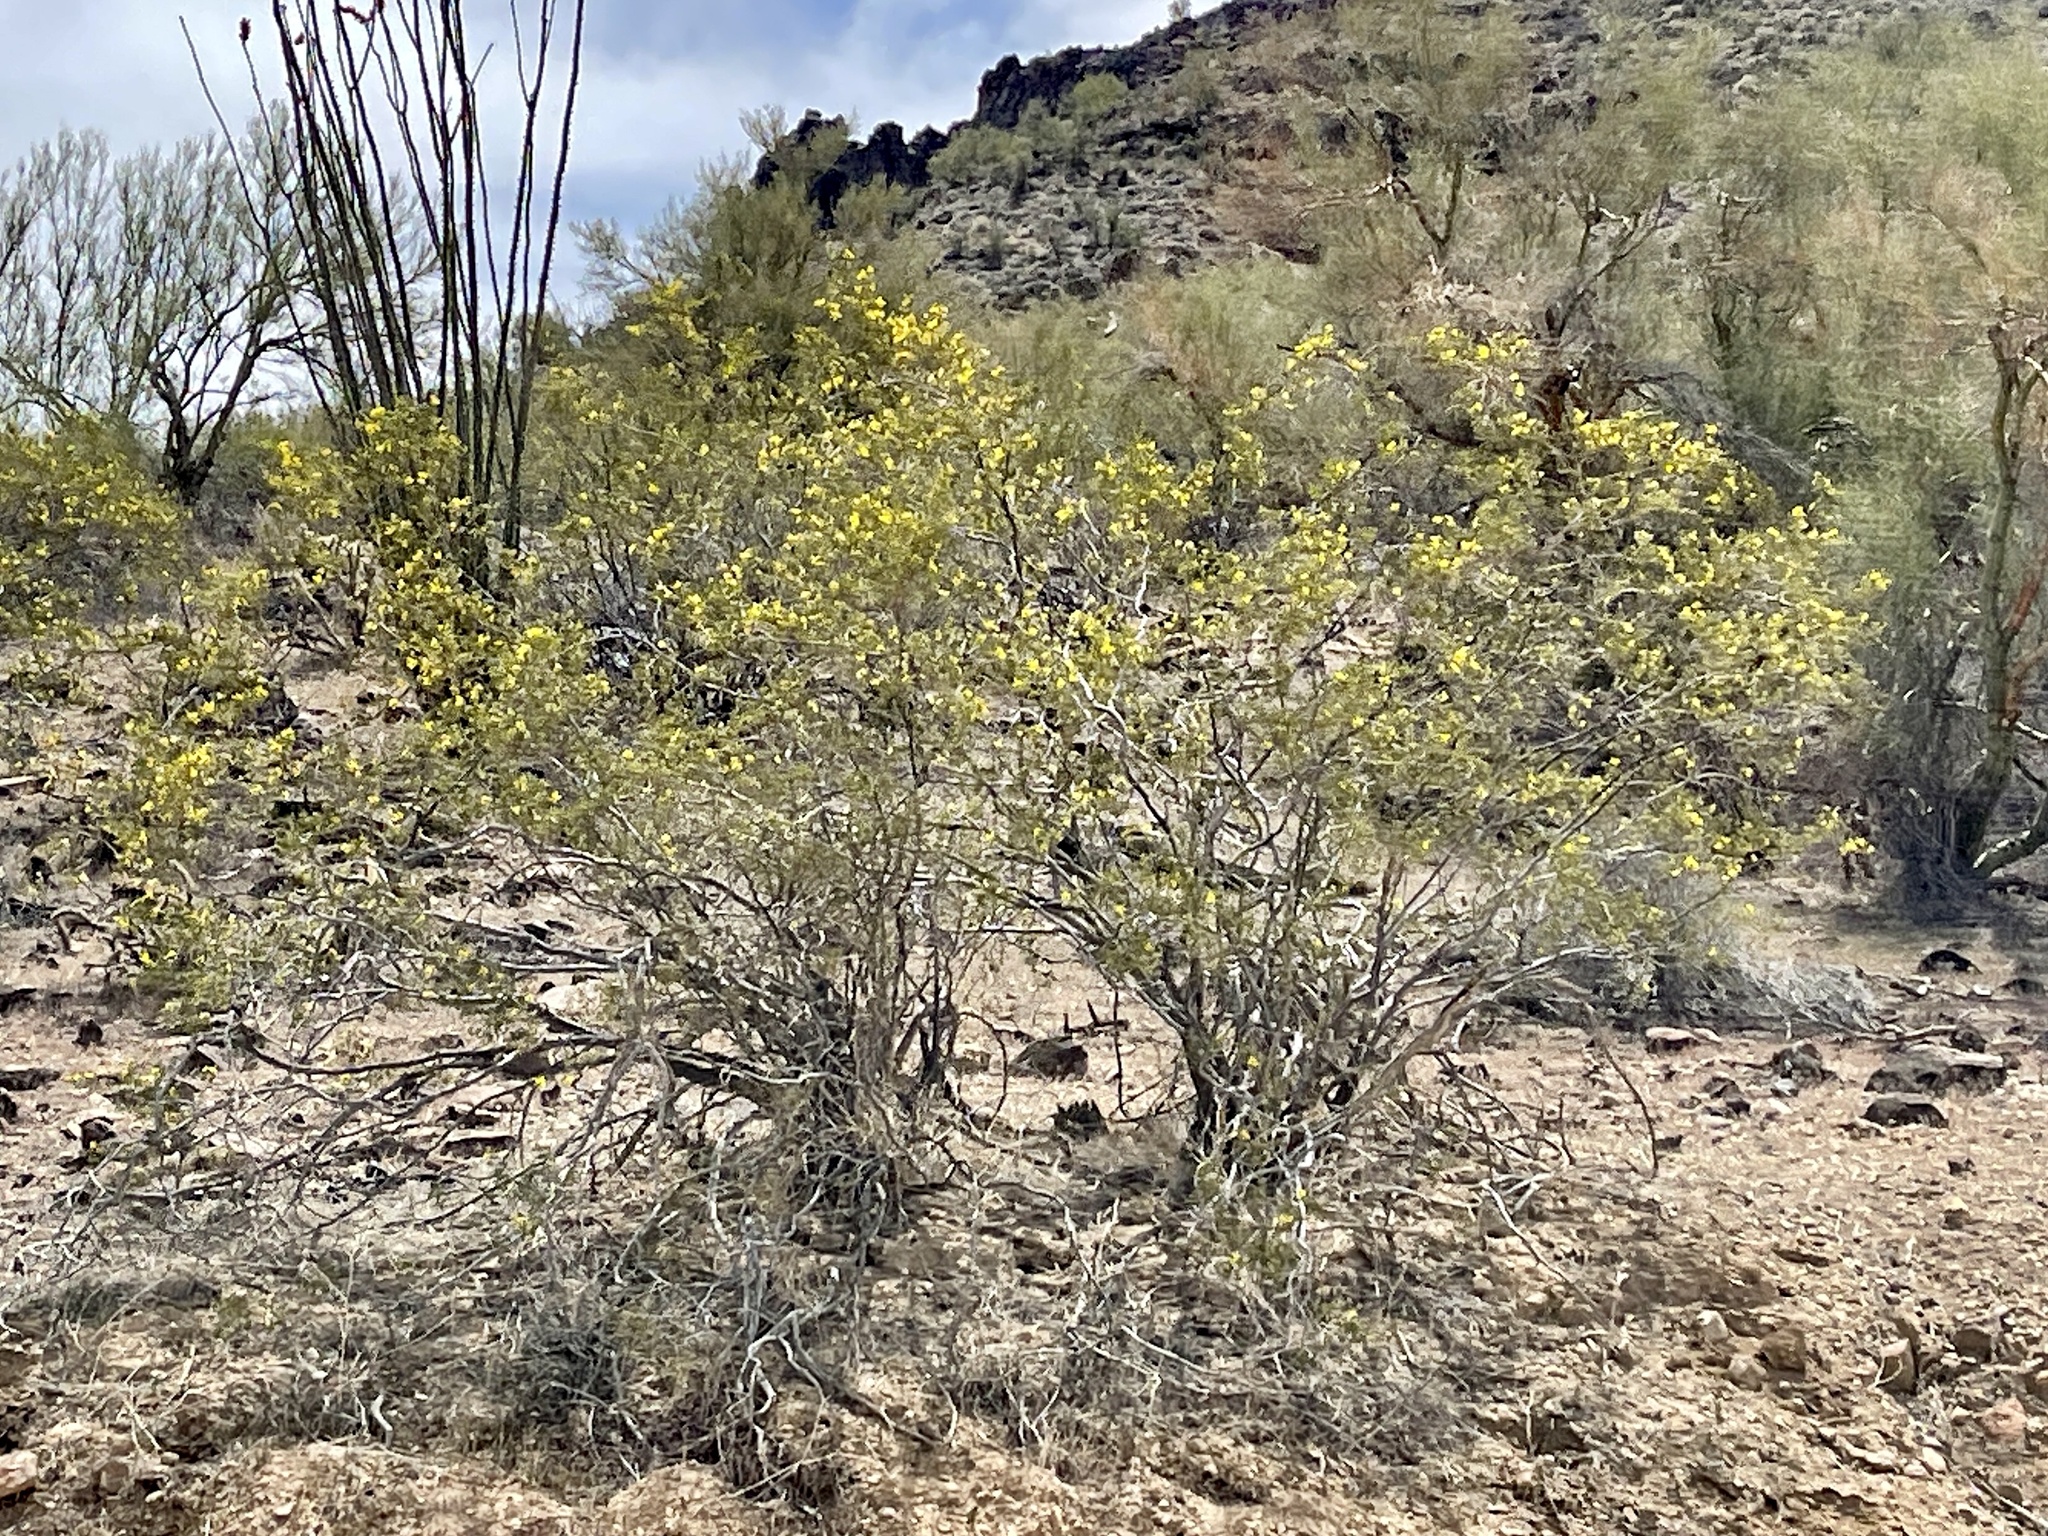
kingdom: Plantae
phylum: Tracheophyta
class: Magnoliopsida
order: Zygophyllales
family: Zygophyllaceae
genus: Larrea
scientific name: Larrea tridentata
